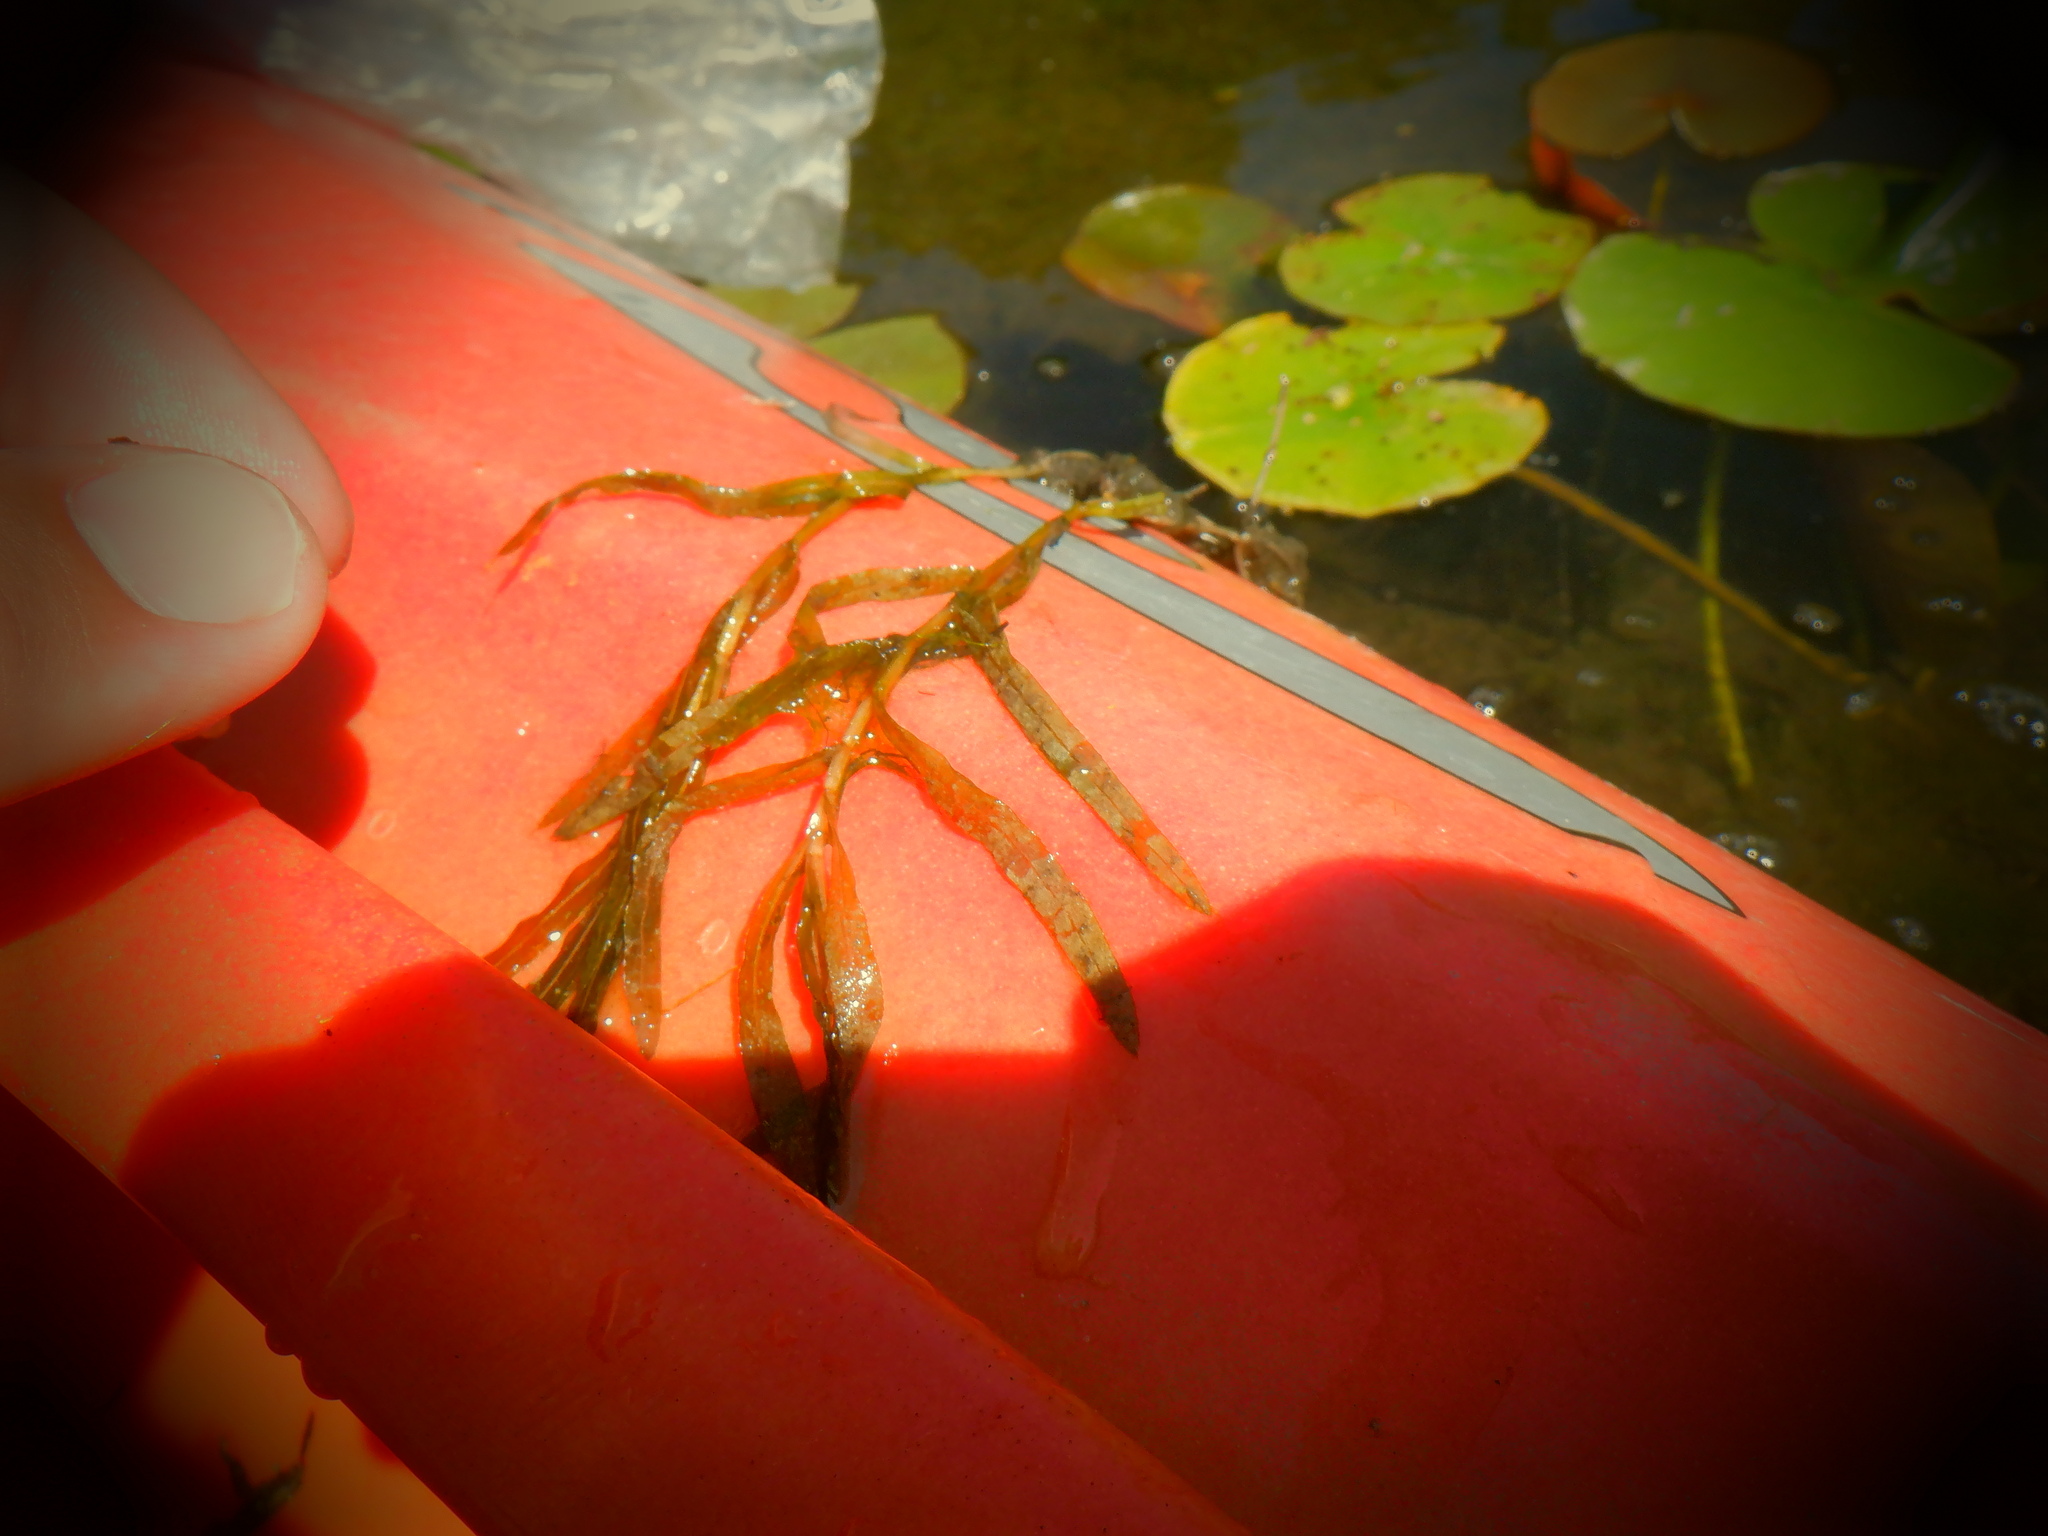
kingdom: Plantae
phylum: Tracheophyta
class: Liliopsida
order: Alismatales
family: Potamogetonaceae
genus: Potamogeton
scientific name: Potamogeton crispus
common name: Curled pondweed
